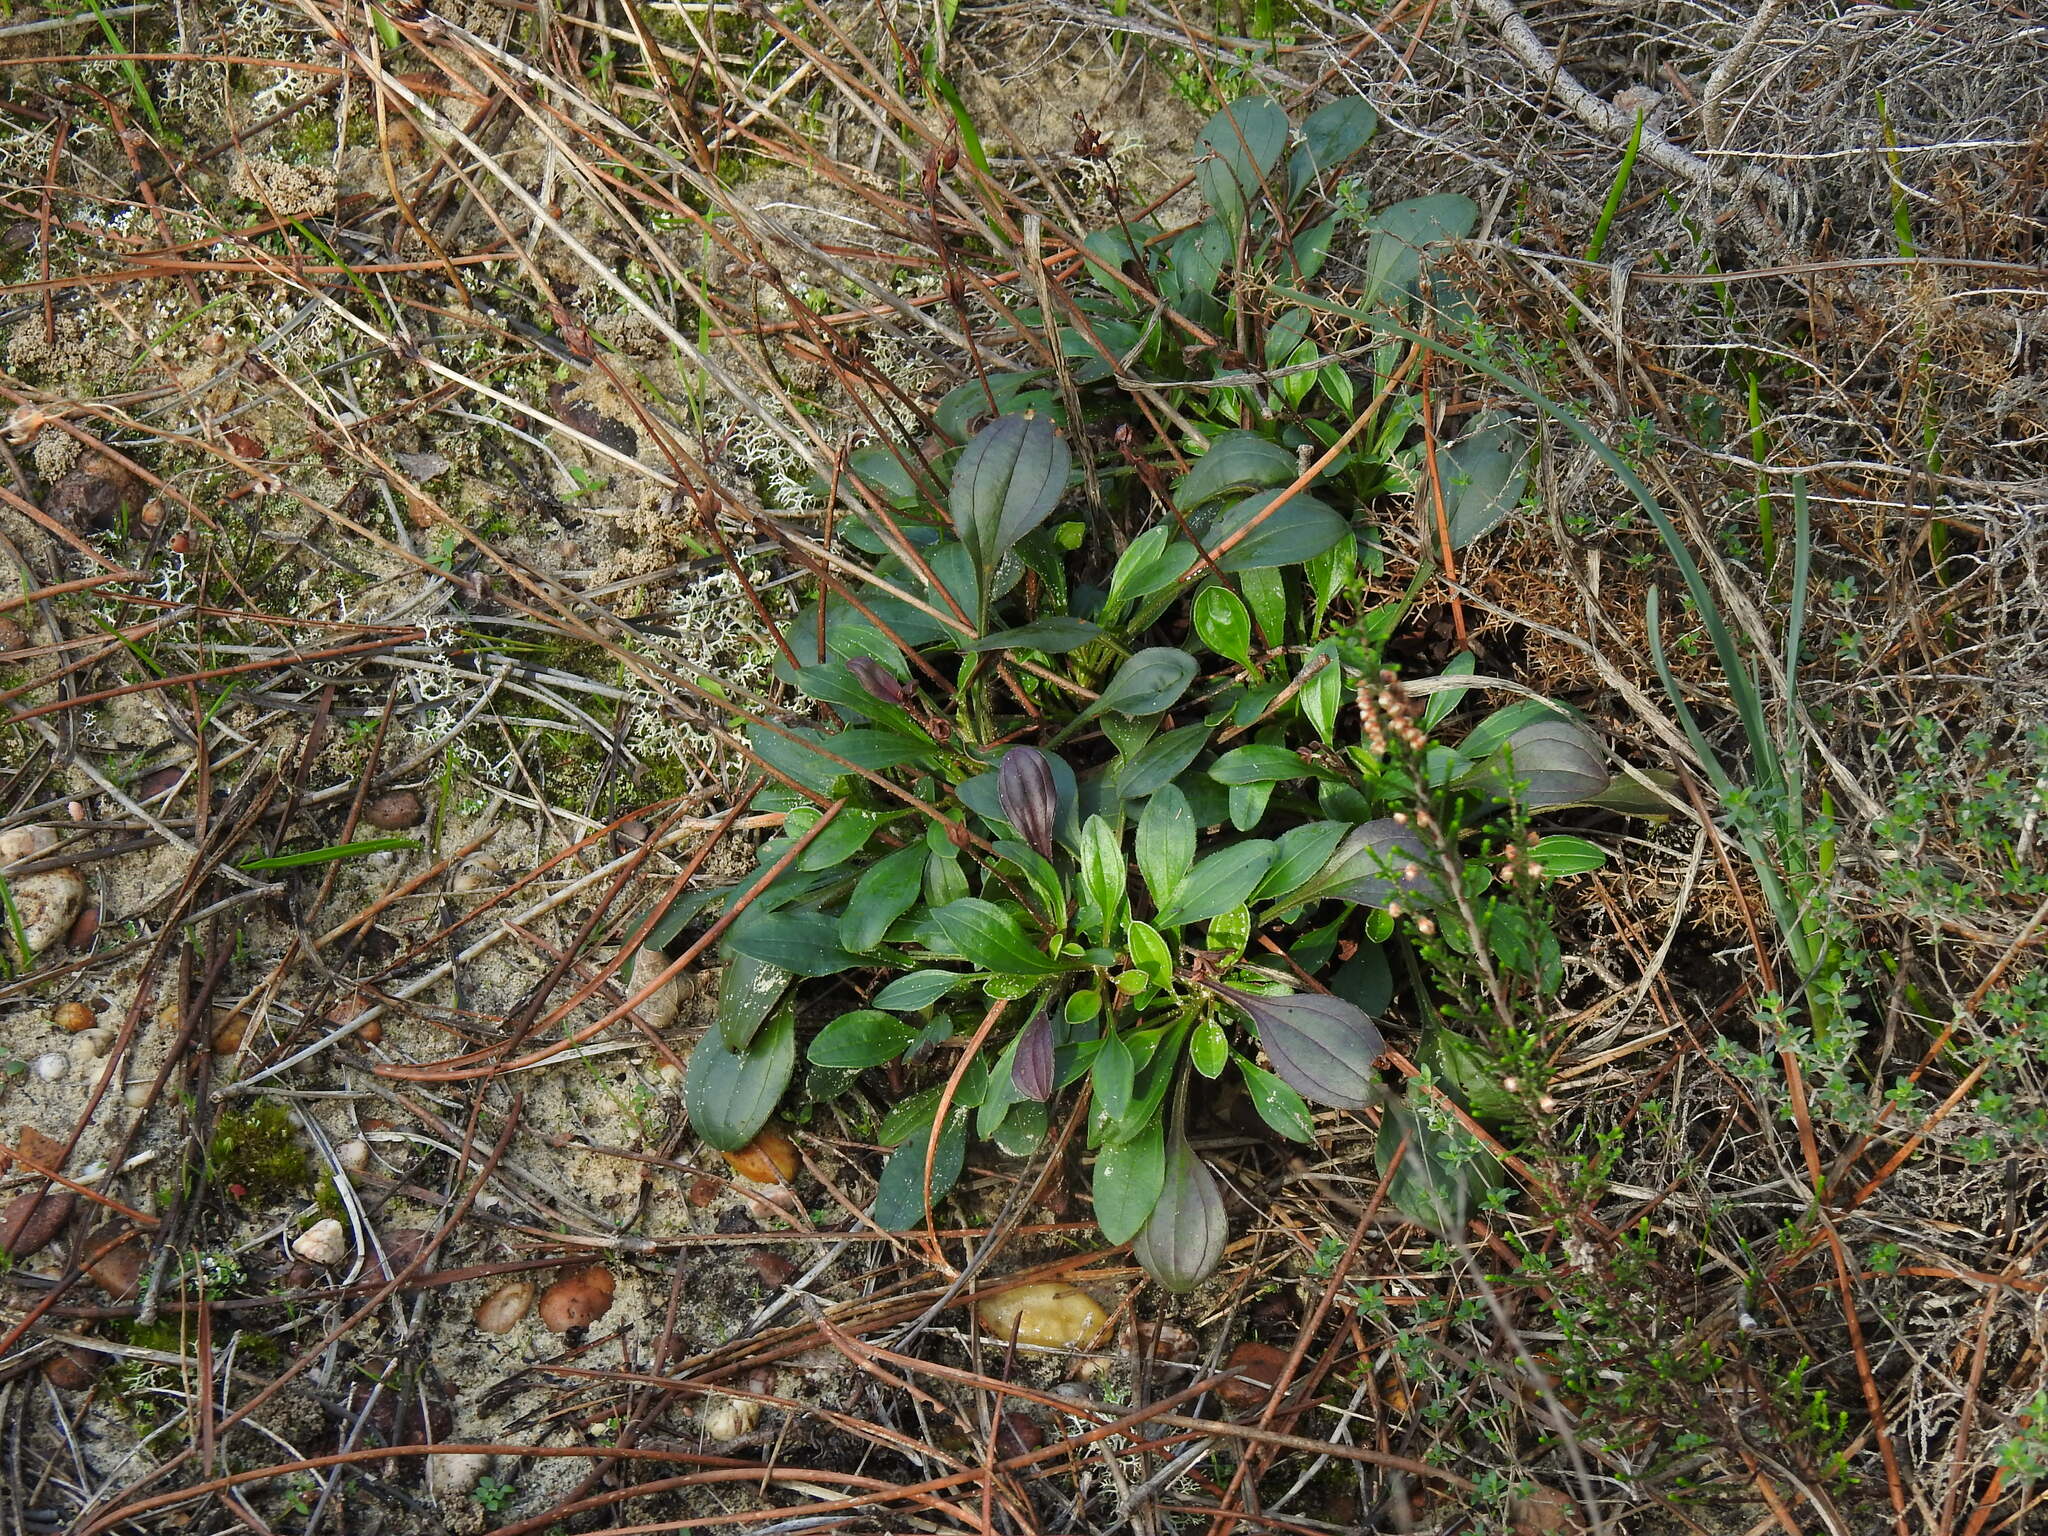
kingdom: Plantae
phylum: Tracheophyta
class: Magnoliopsida
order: Malvales
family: Cistaceae
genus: Tuberaria
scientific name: Tuberaria globulariifolia
